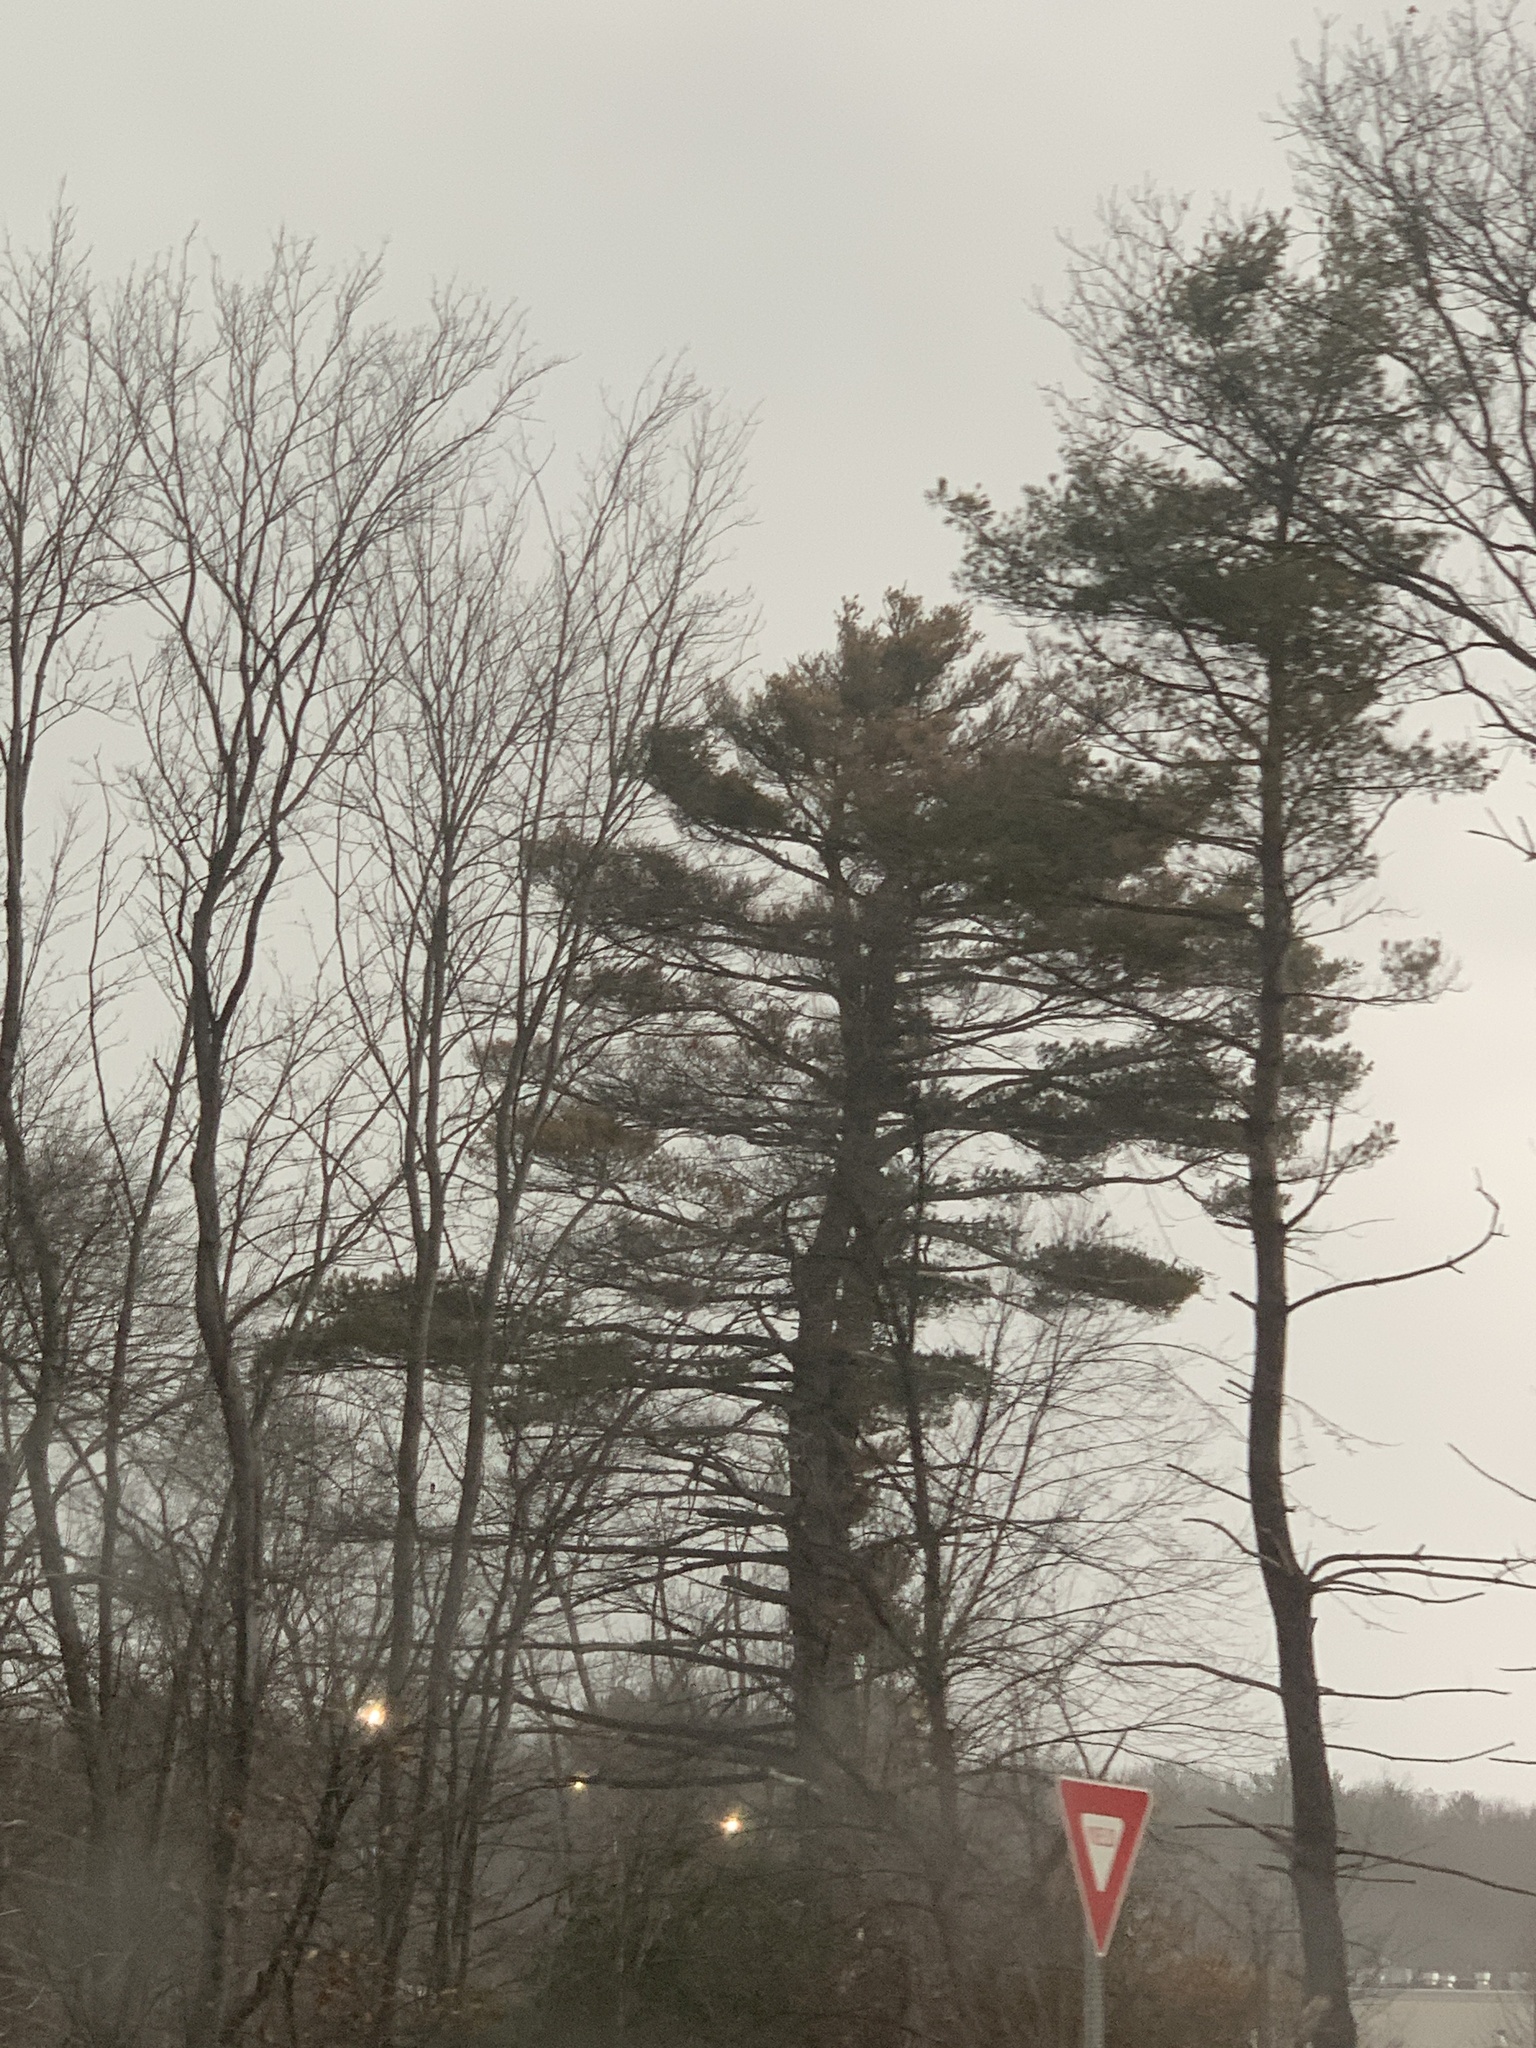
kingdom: Plantae
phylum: Tracheophyta
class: Pinopsida
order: Pinales
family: Pinaceae
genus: Pinus
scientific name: Pinus strobus
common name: Weymouth pine
